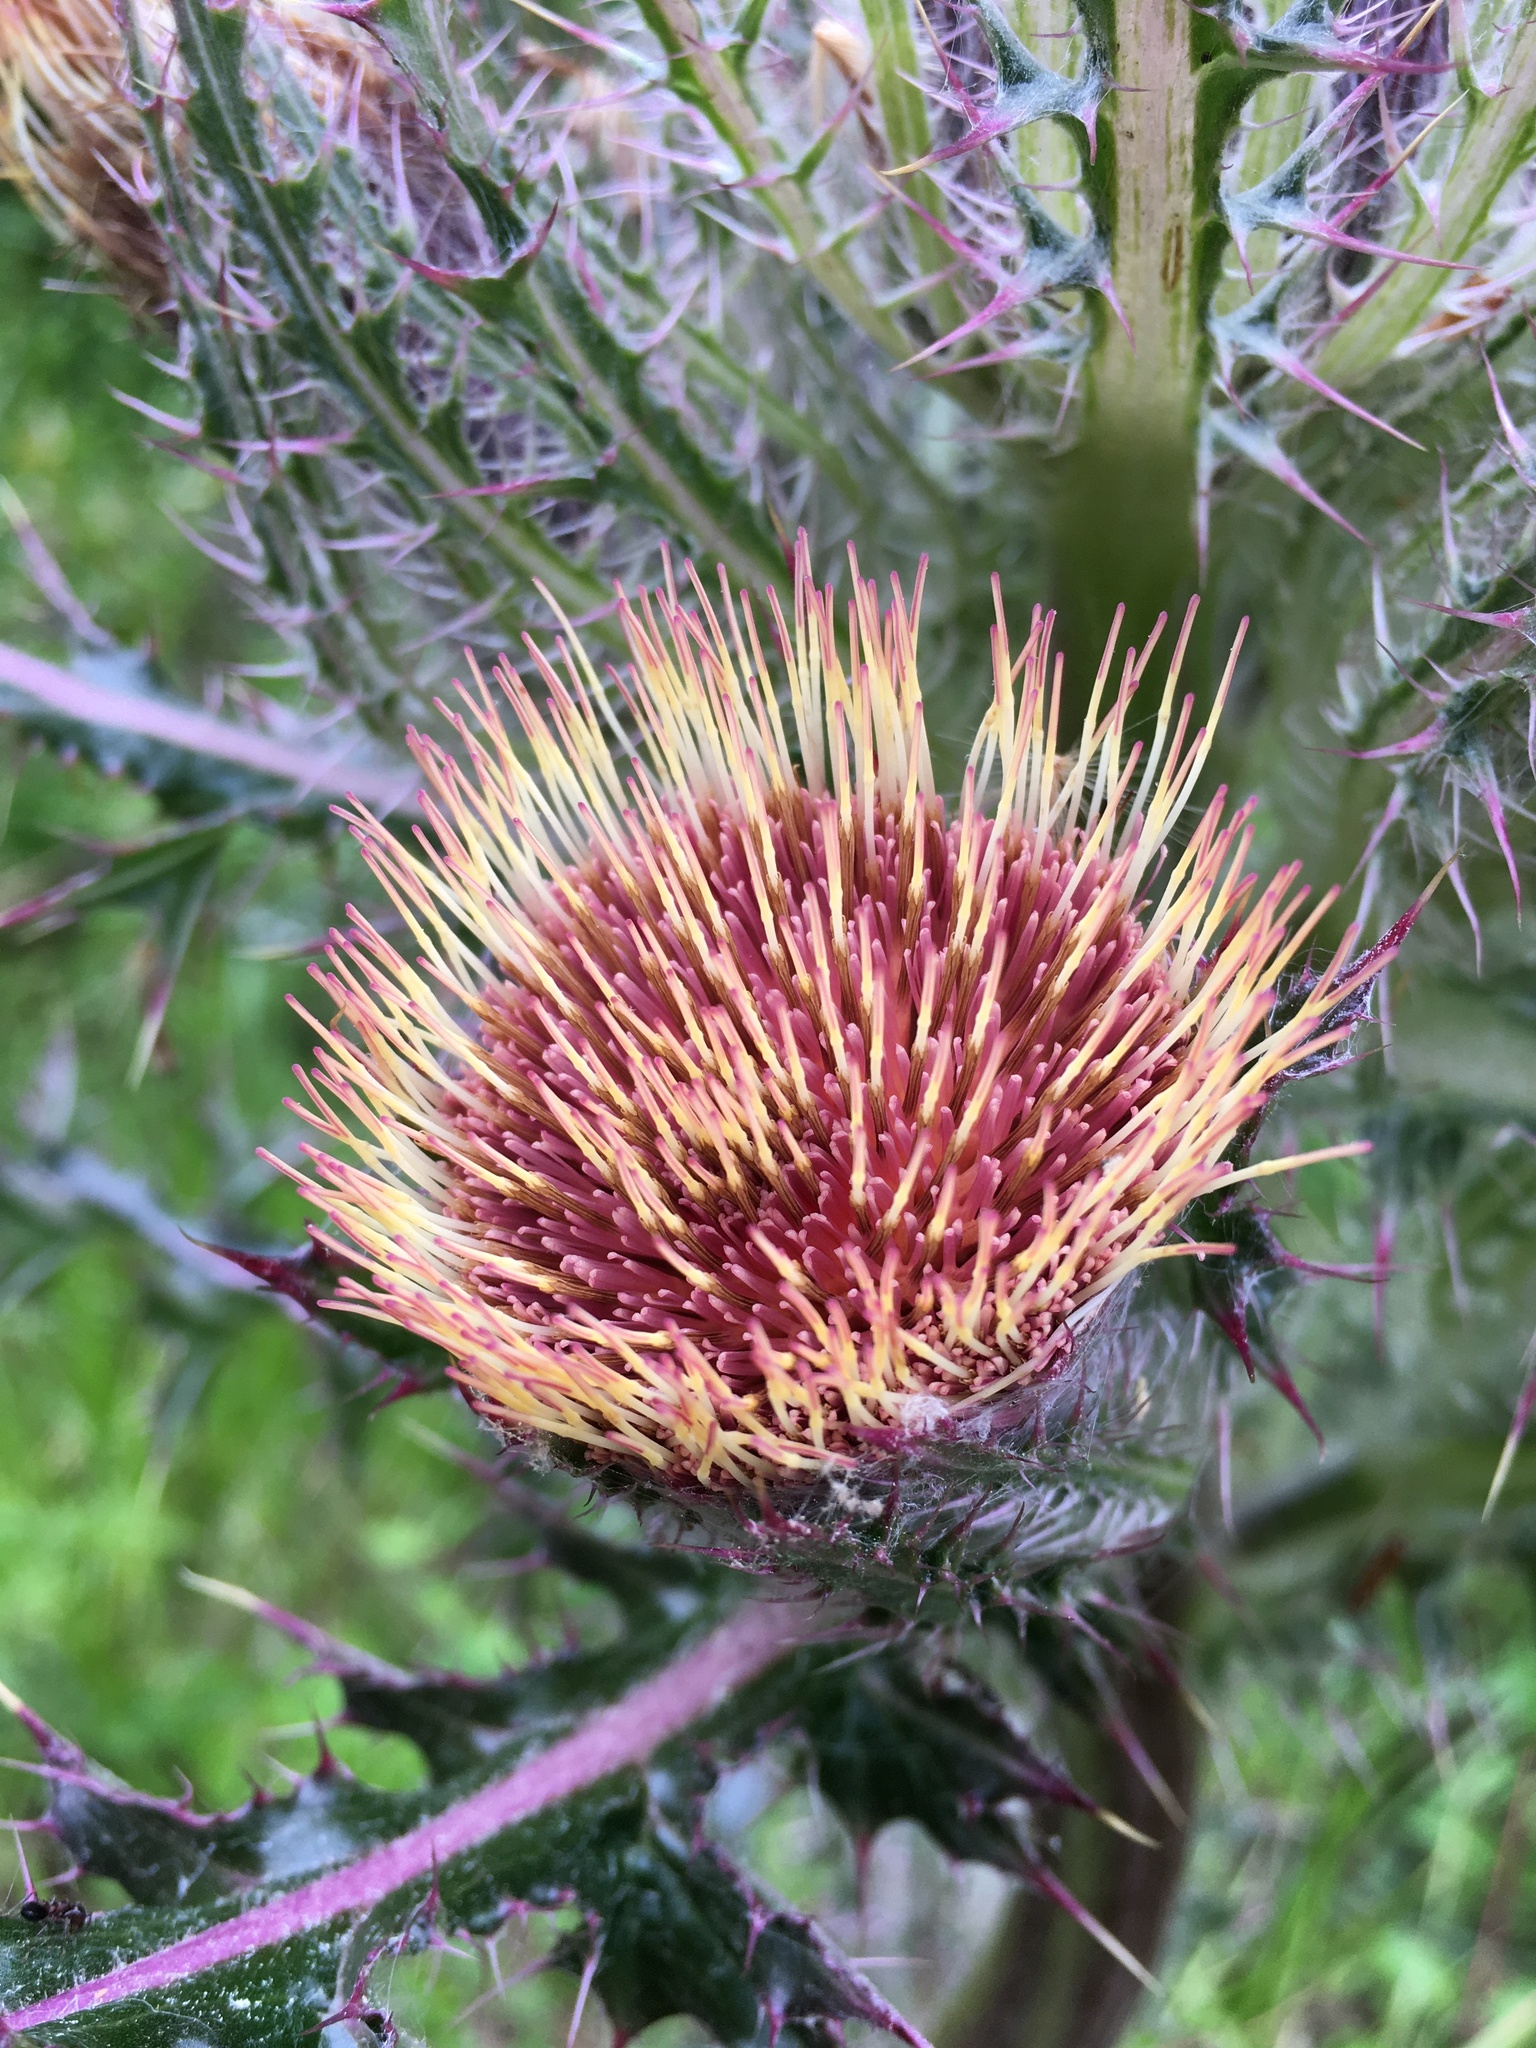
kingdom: Plantae
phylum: Tracheophyta
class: Magnoliopsida
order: Asterales
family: Asteraceae
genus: Cirsium
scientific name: Cirsium horridulum
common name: Bristly thistle
